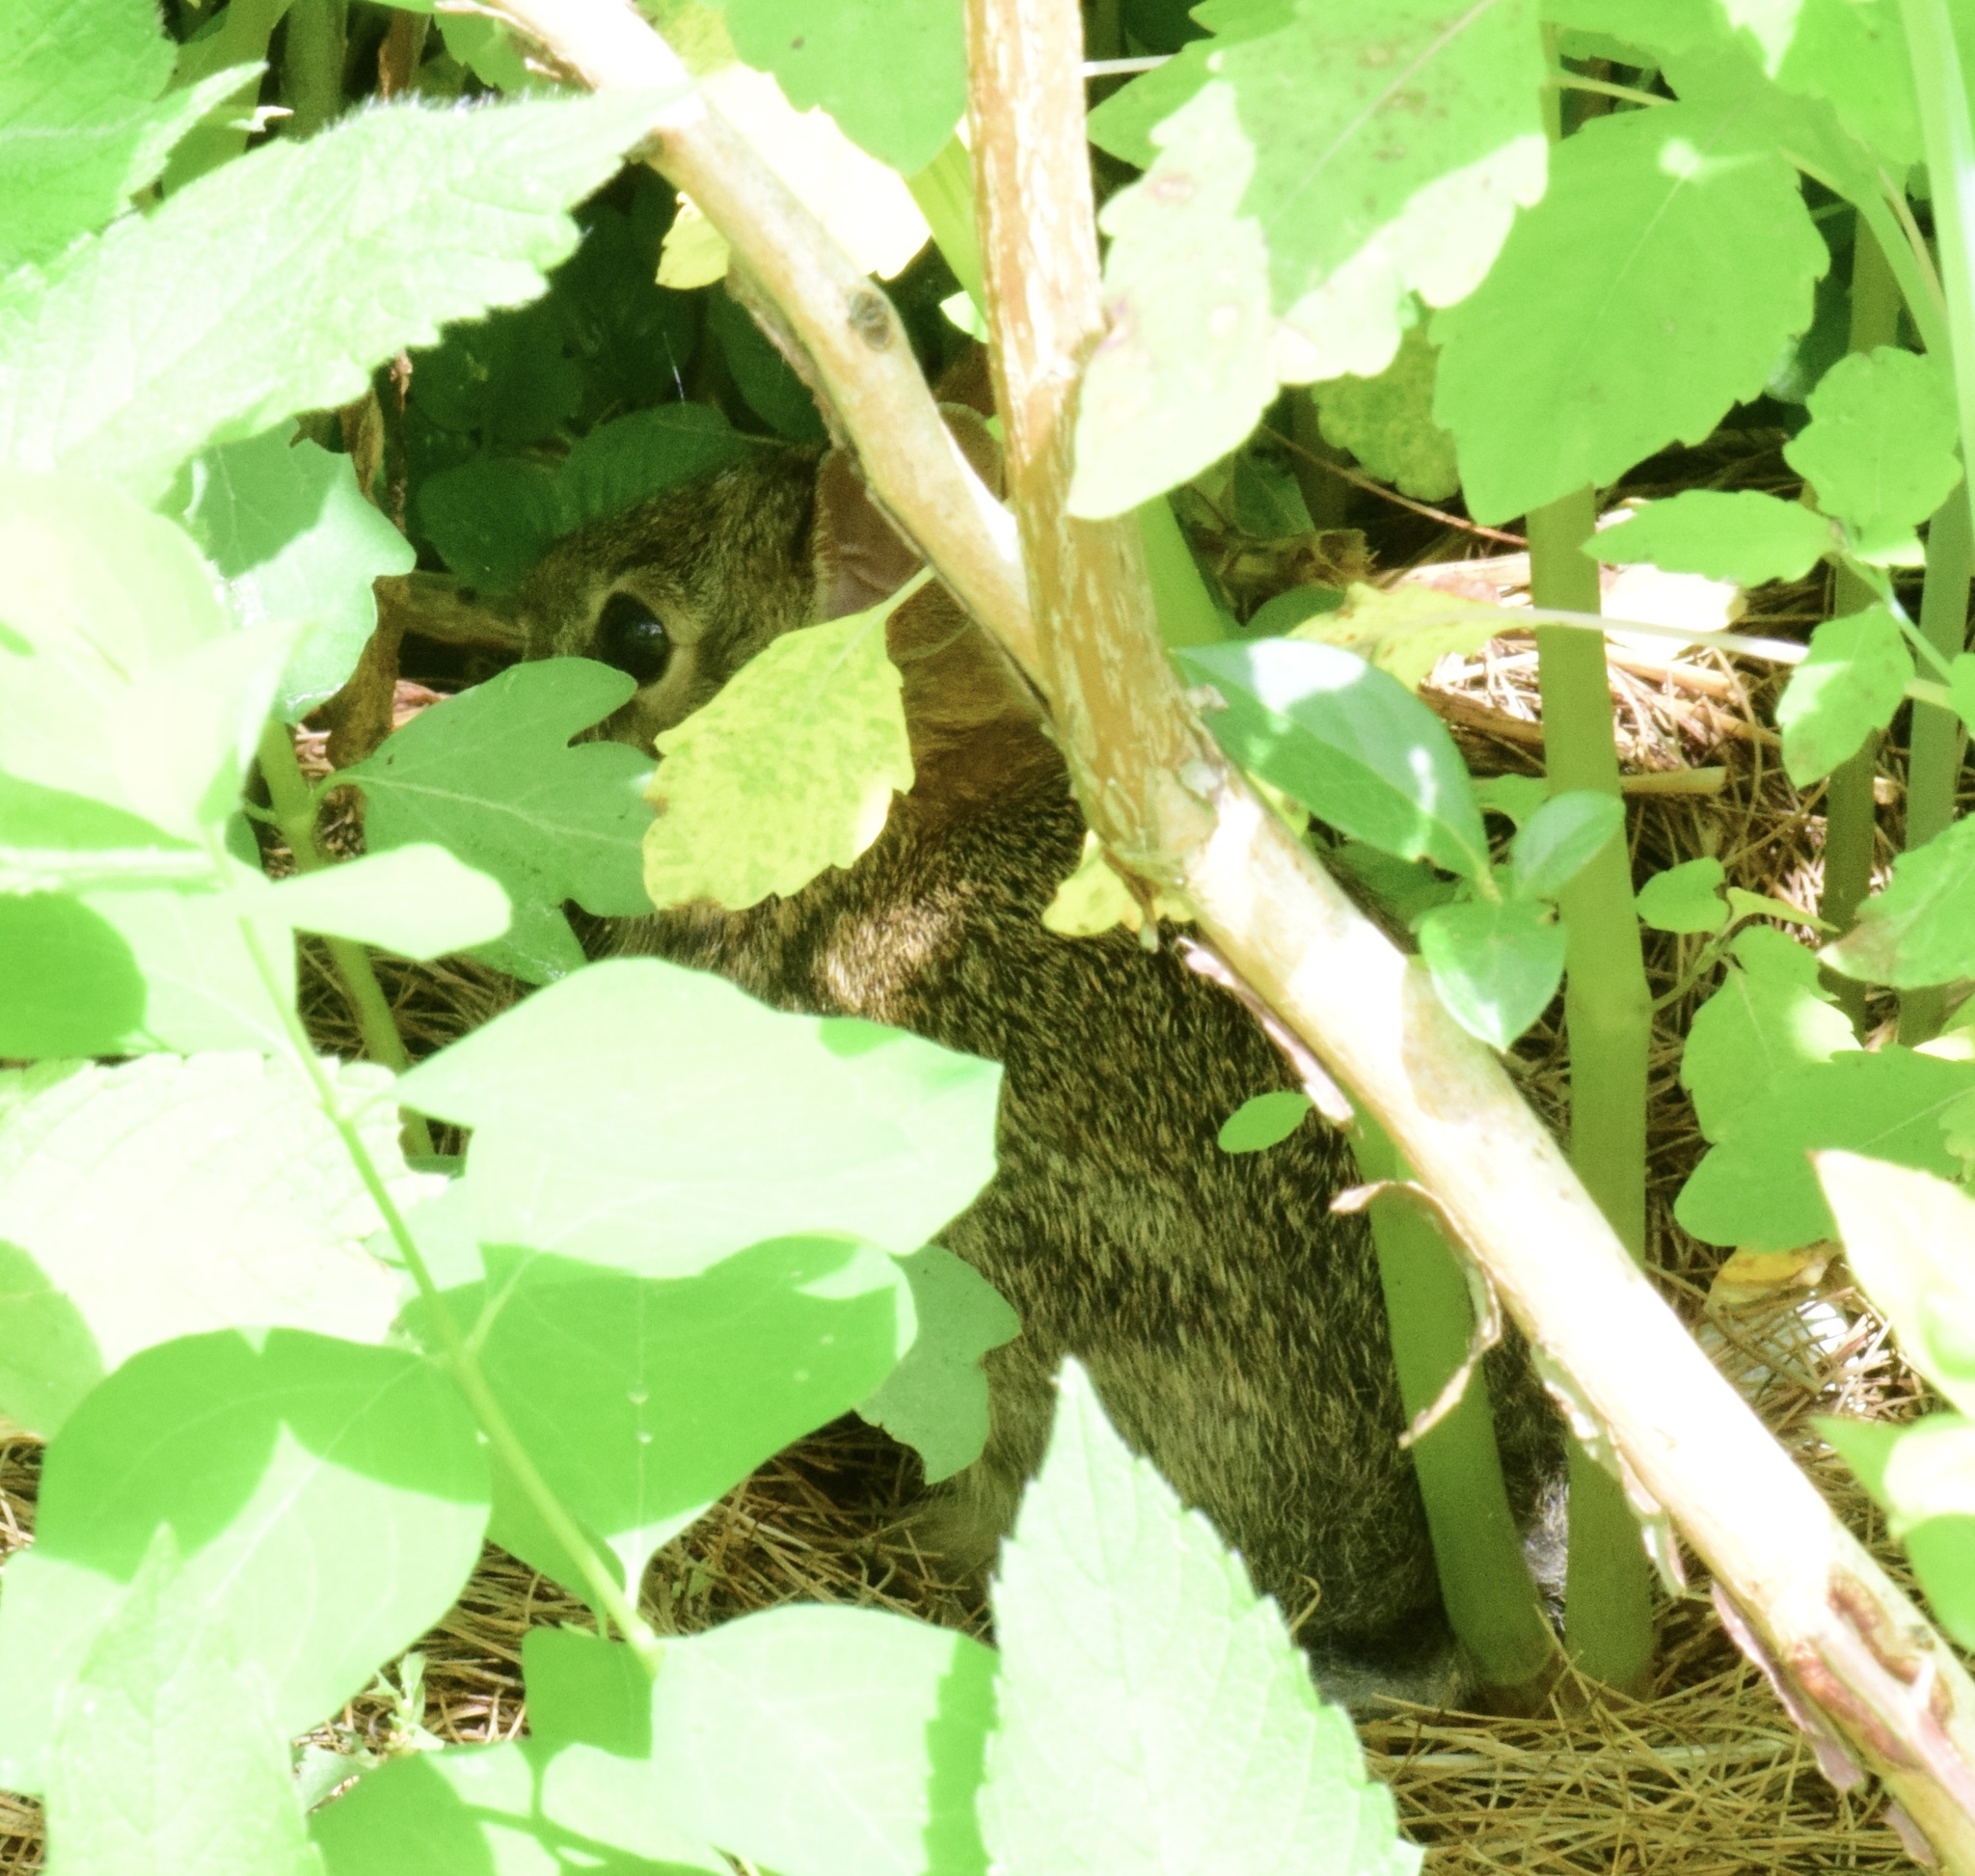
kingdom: Animalia
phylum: Chordata
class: Mammalia
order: Lagomorpha
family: Leporidae
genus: Sylvilagus
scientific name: Sylvilagus floridanus
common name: Eastern cottontail
